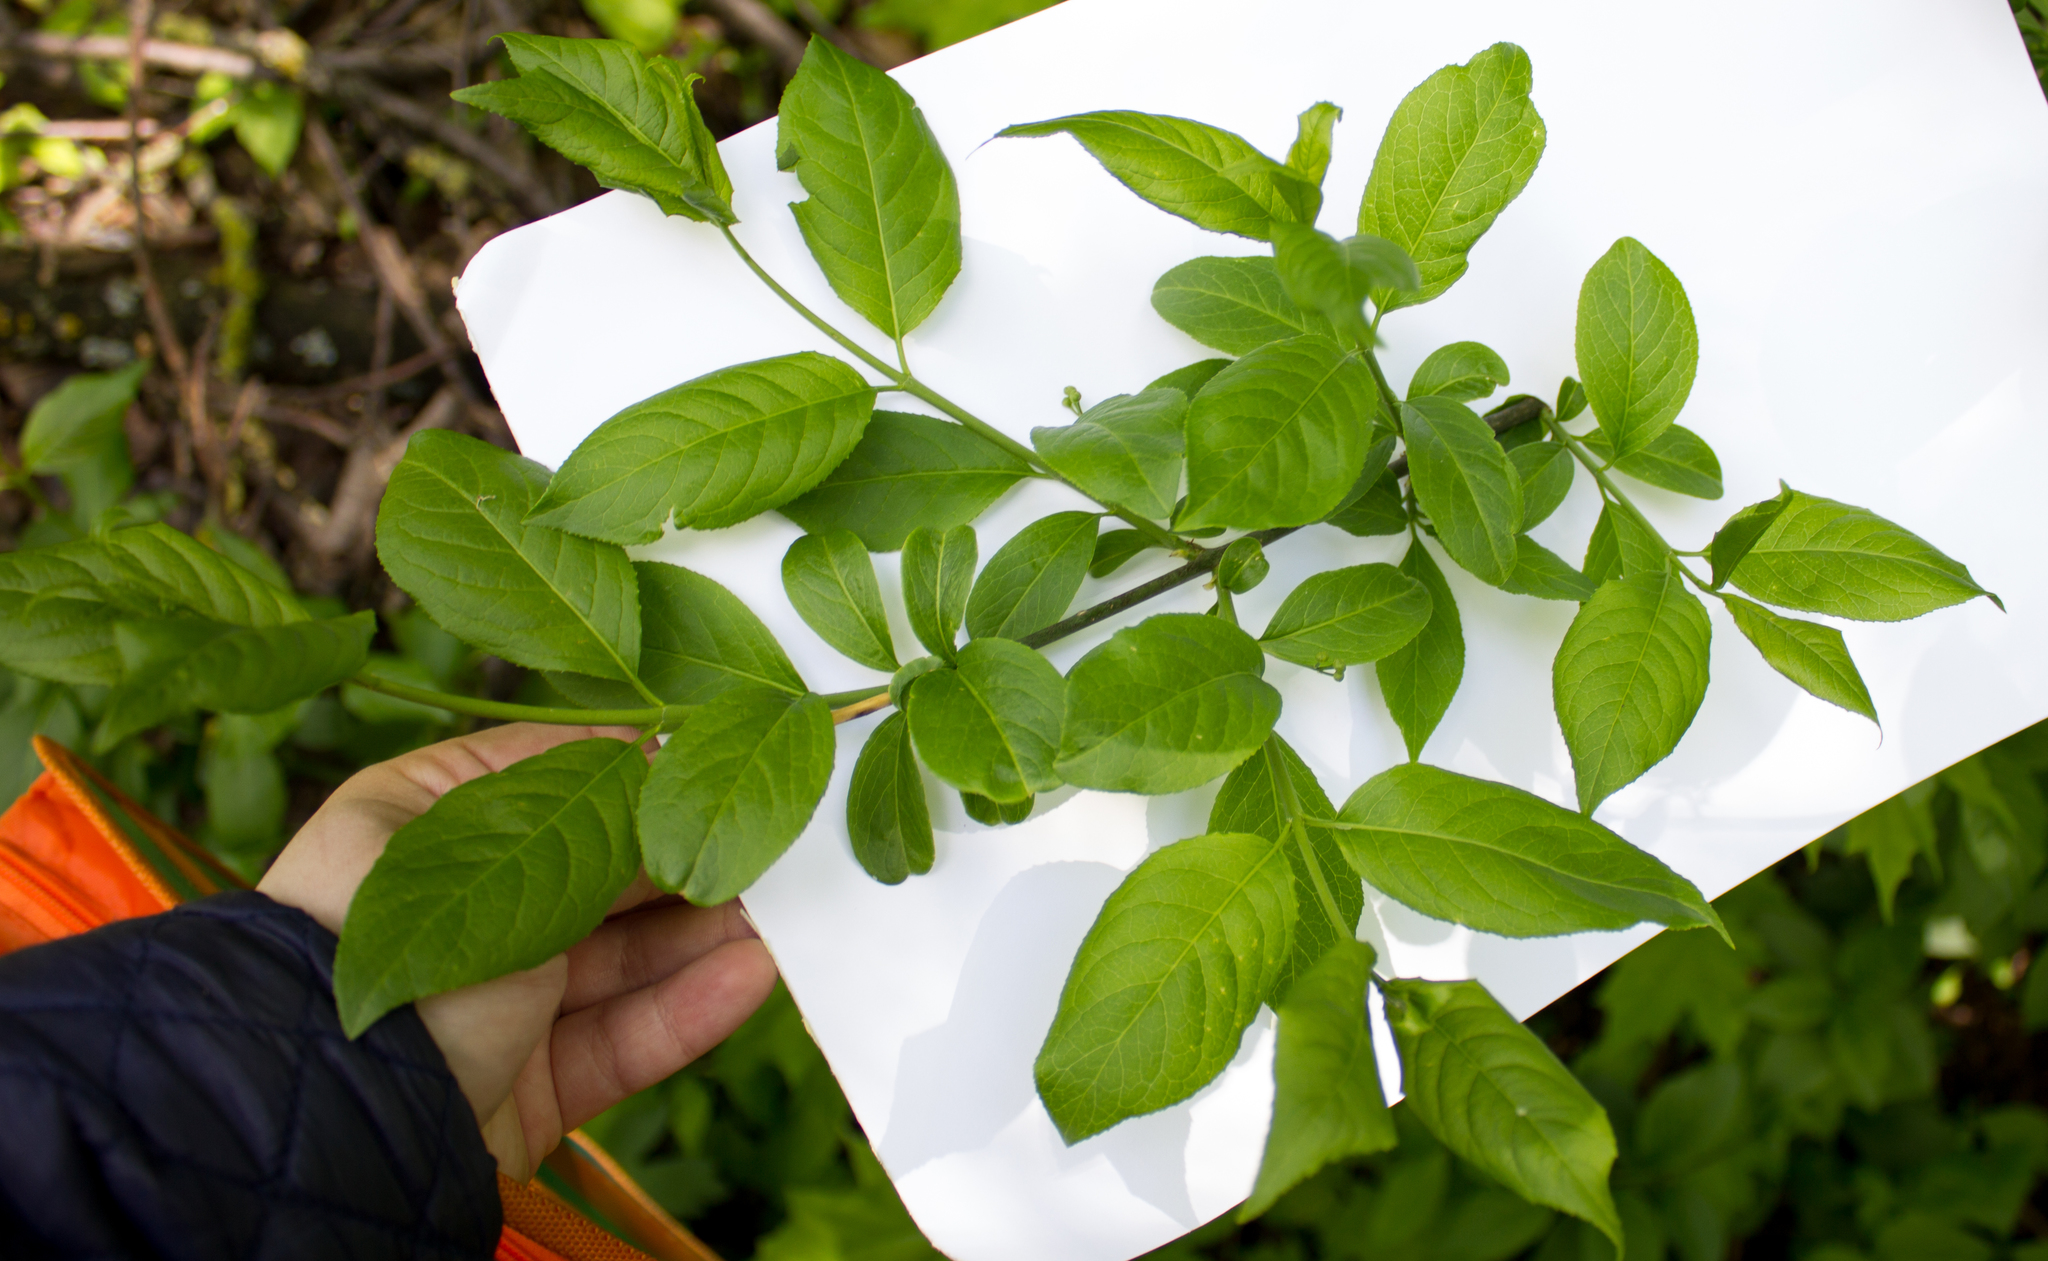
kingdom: Plantae
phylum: Tracheophyta
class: Magnoliopsida
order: Celastrales
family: Celastraceae
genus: Euonymus
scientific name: Euonymus europaeus
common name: Spindle
